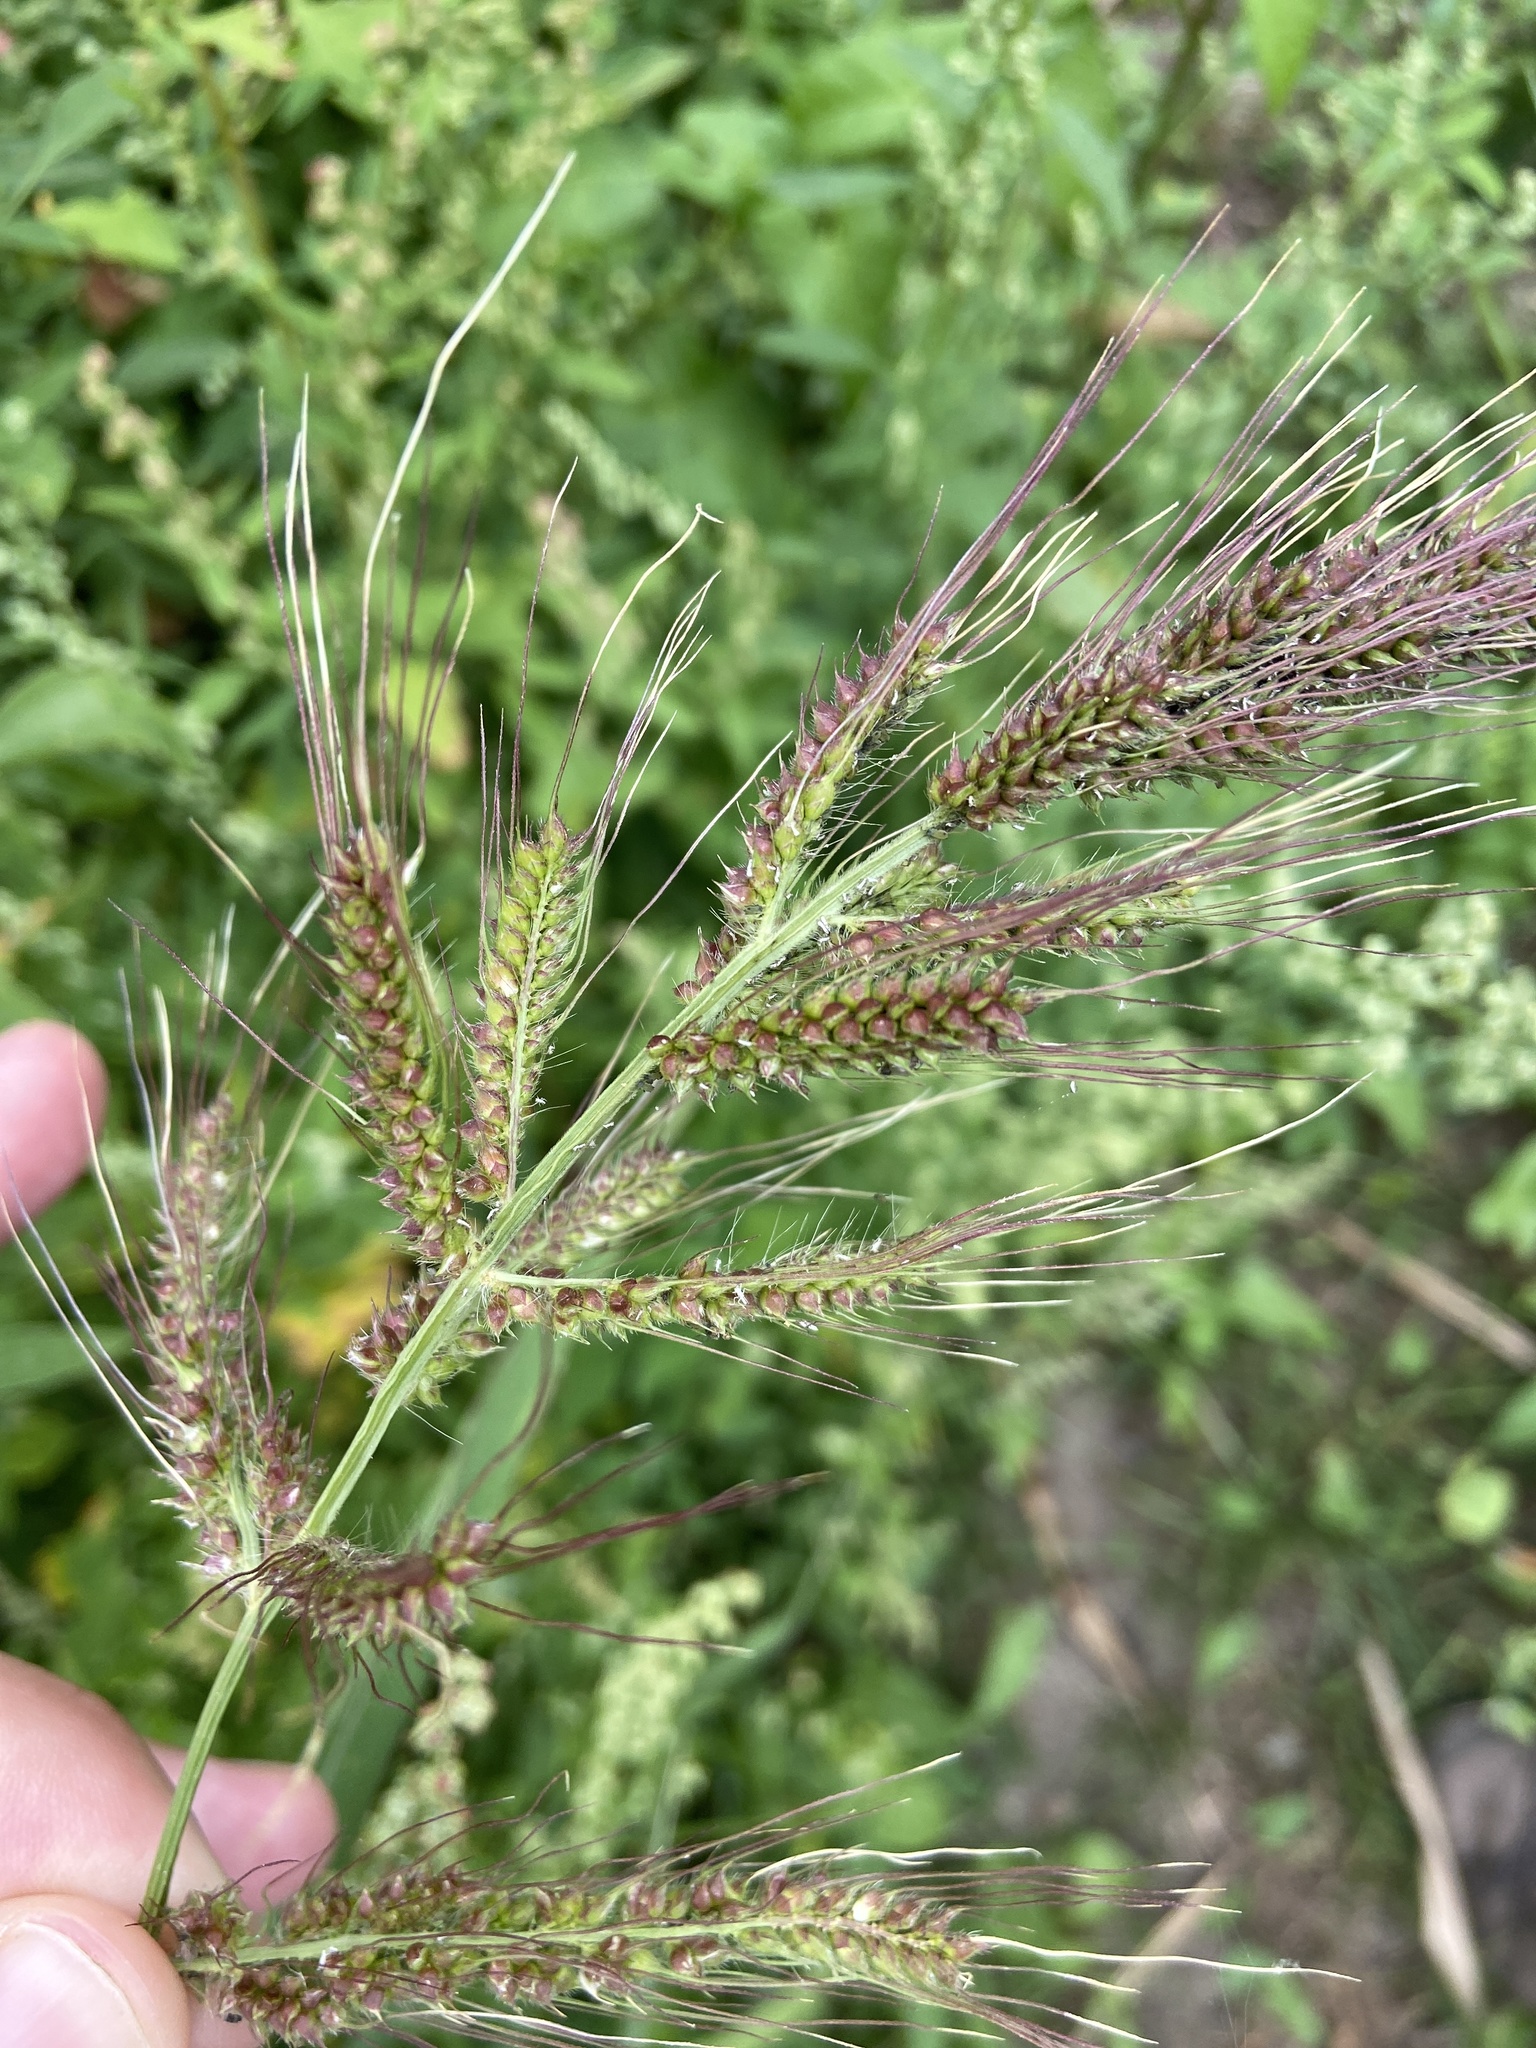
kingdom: Plantae
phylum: Tracheophyta
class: Liliopsida
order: Poales
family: Poaceae
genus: Echinochloa
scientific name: Echinochloa crus-galli
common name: Cockspur
